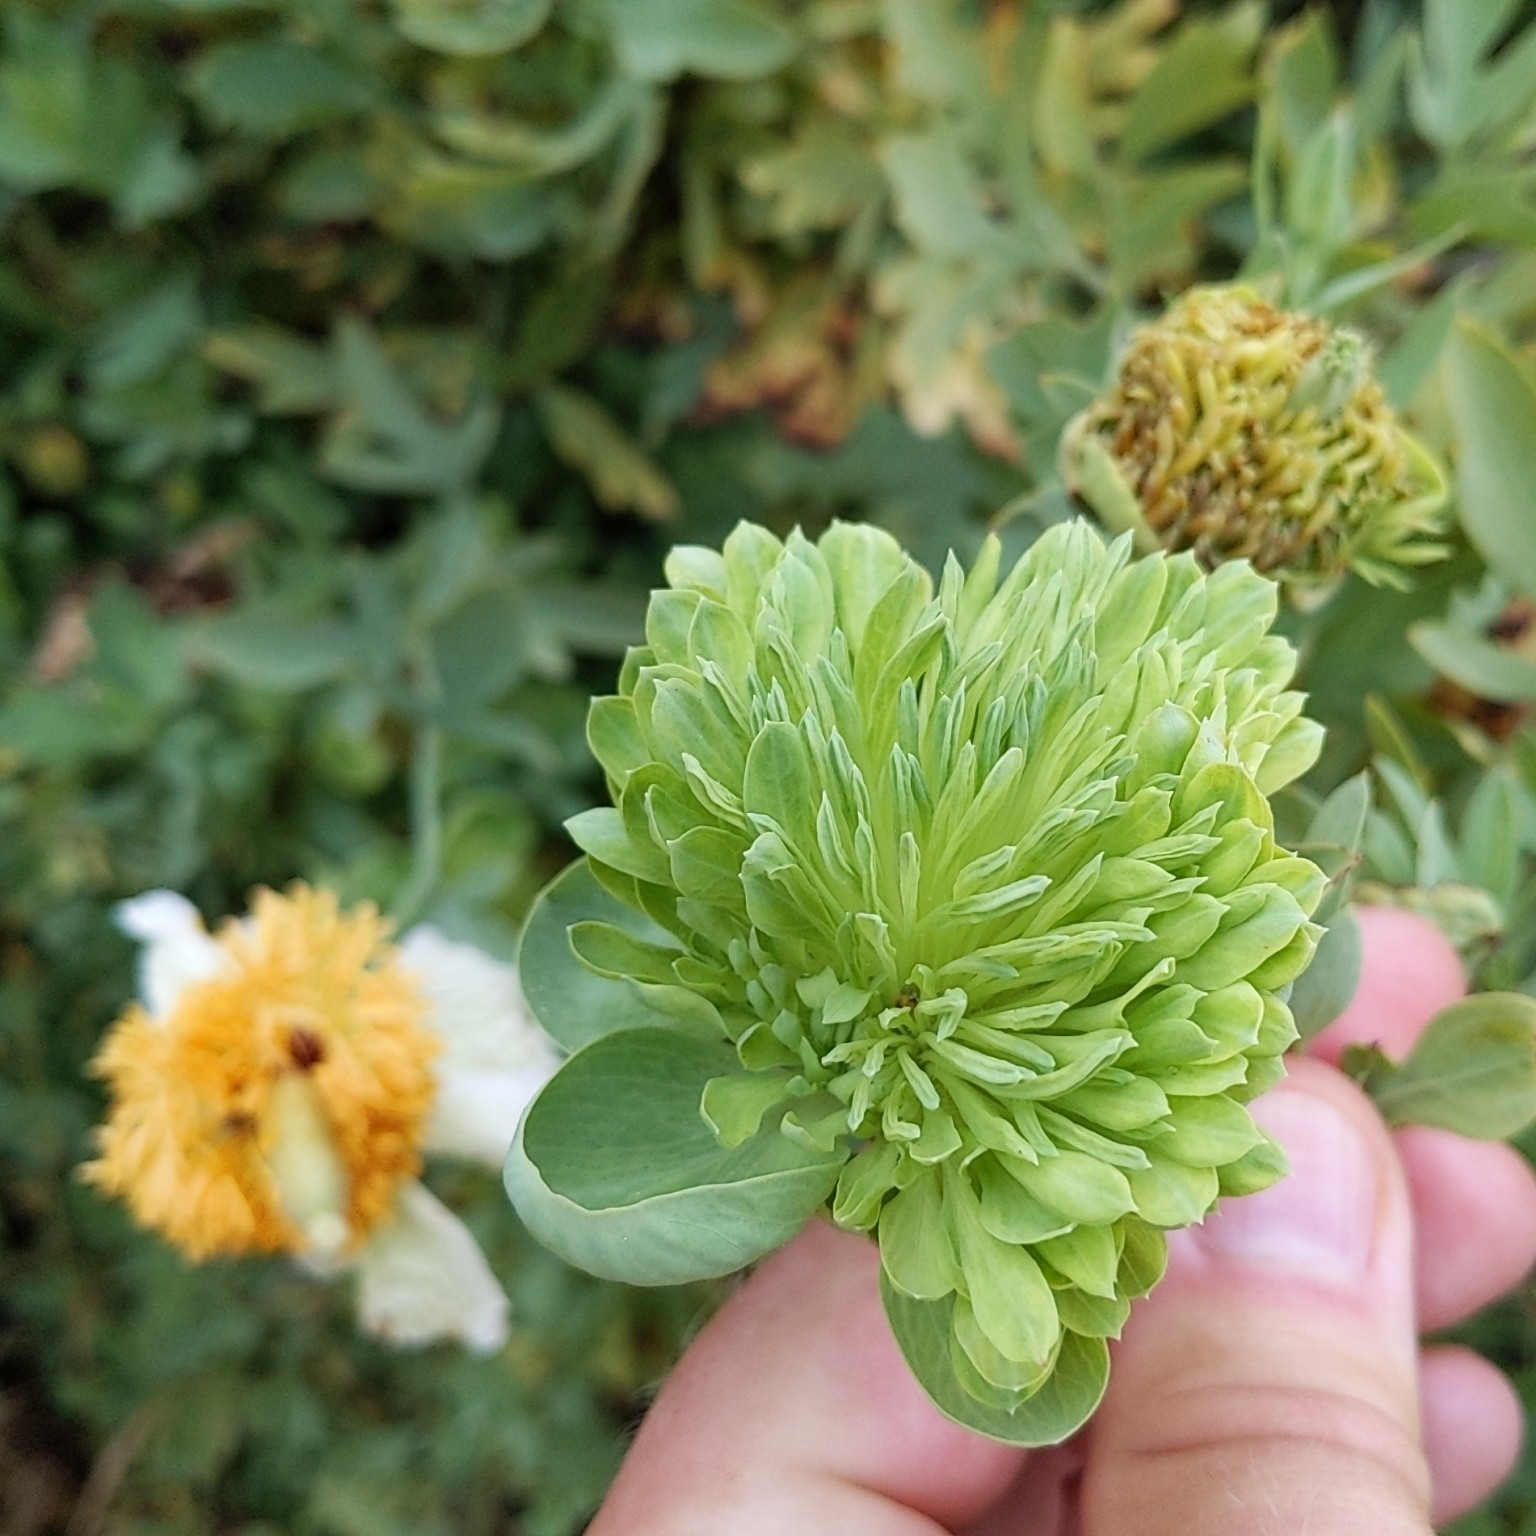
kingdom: Plantae
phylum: Tracheophyta
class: Magnoliopsida
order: Ranunculales
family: Papaveraceae
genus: Romneya
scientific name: Romneya coulteri
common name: California tree-poppy
